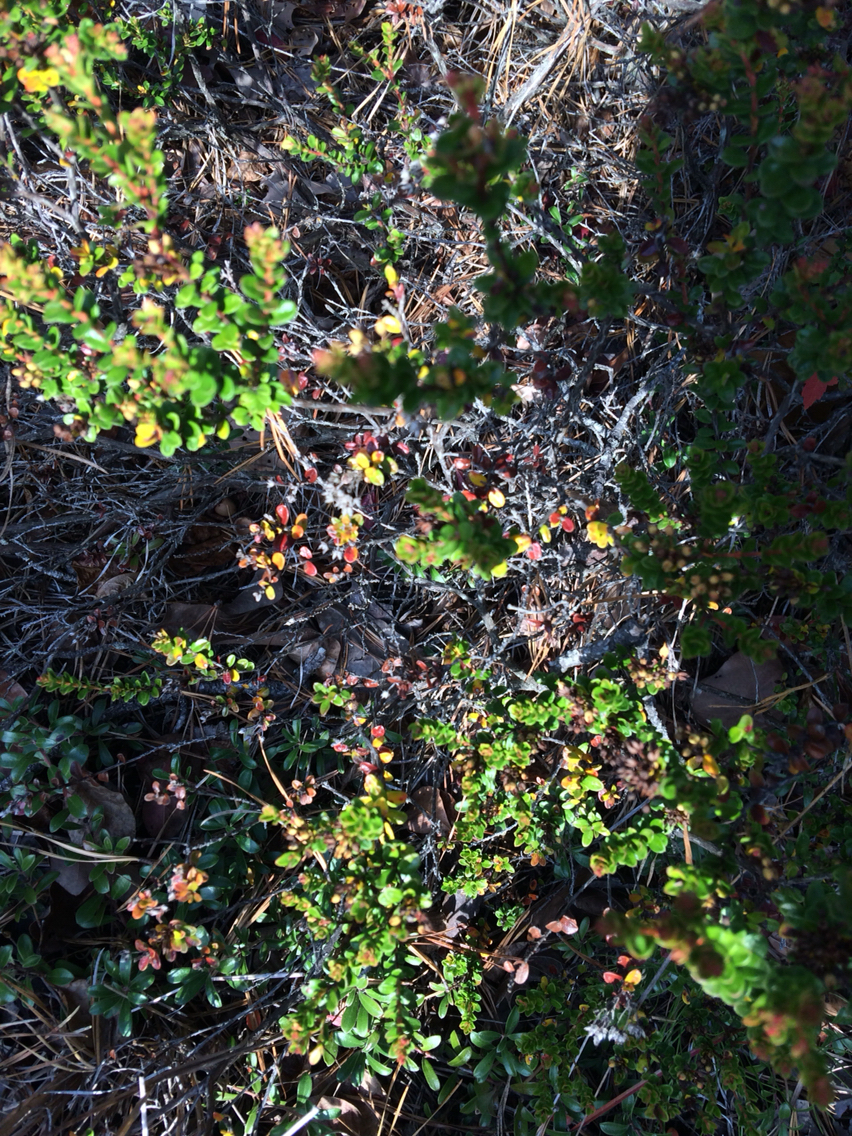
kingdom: Plantae
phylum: Tracheophyta
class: Magnoliopsida
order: Ericales
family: Ericaceae
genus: Kalmia
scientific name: Kalmia buxifolia
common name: Sandmyrtle
